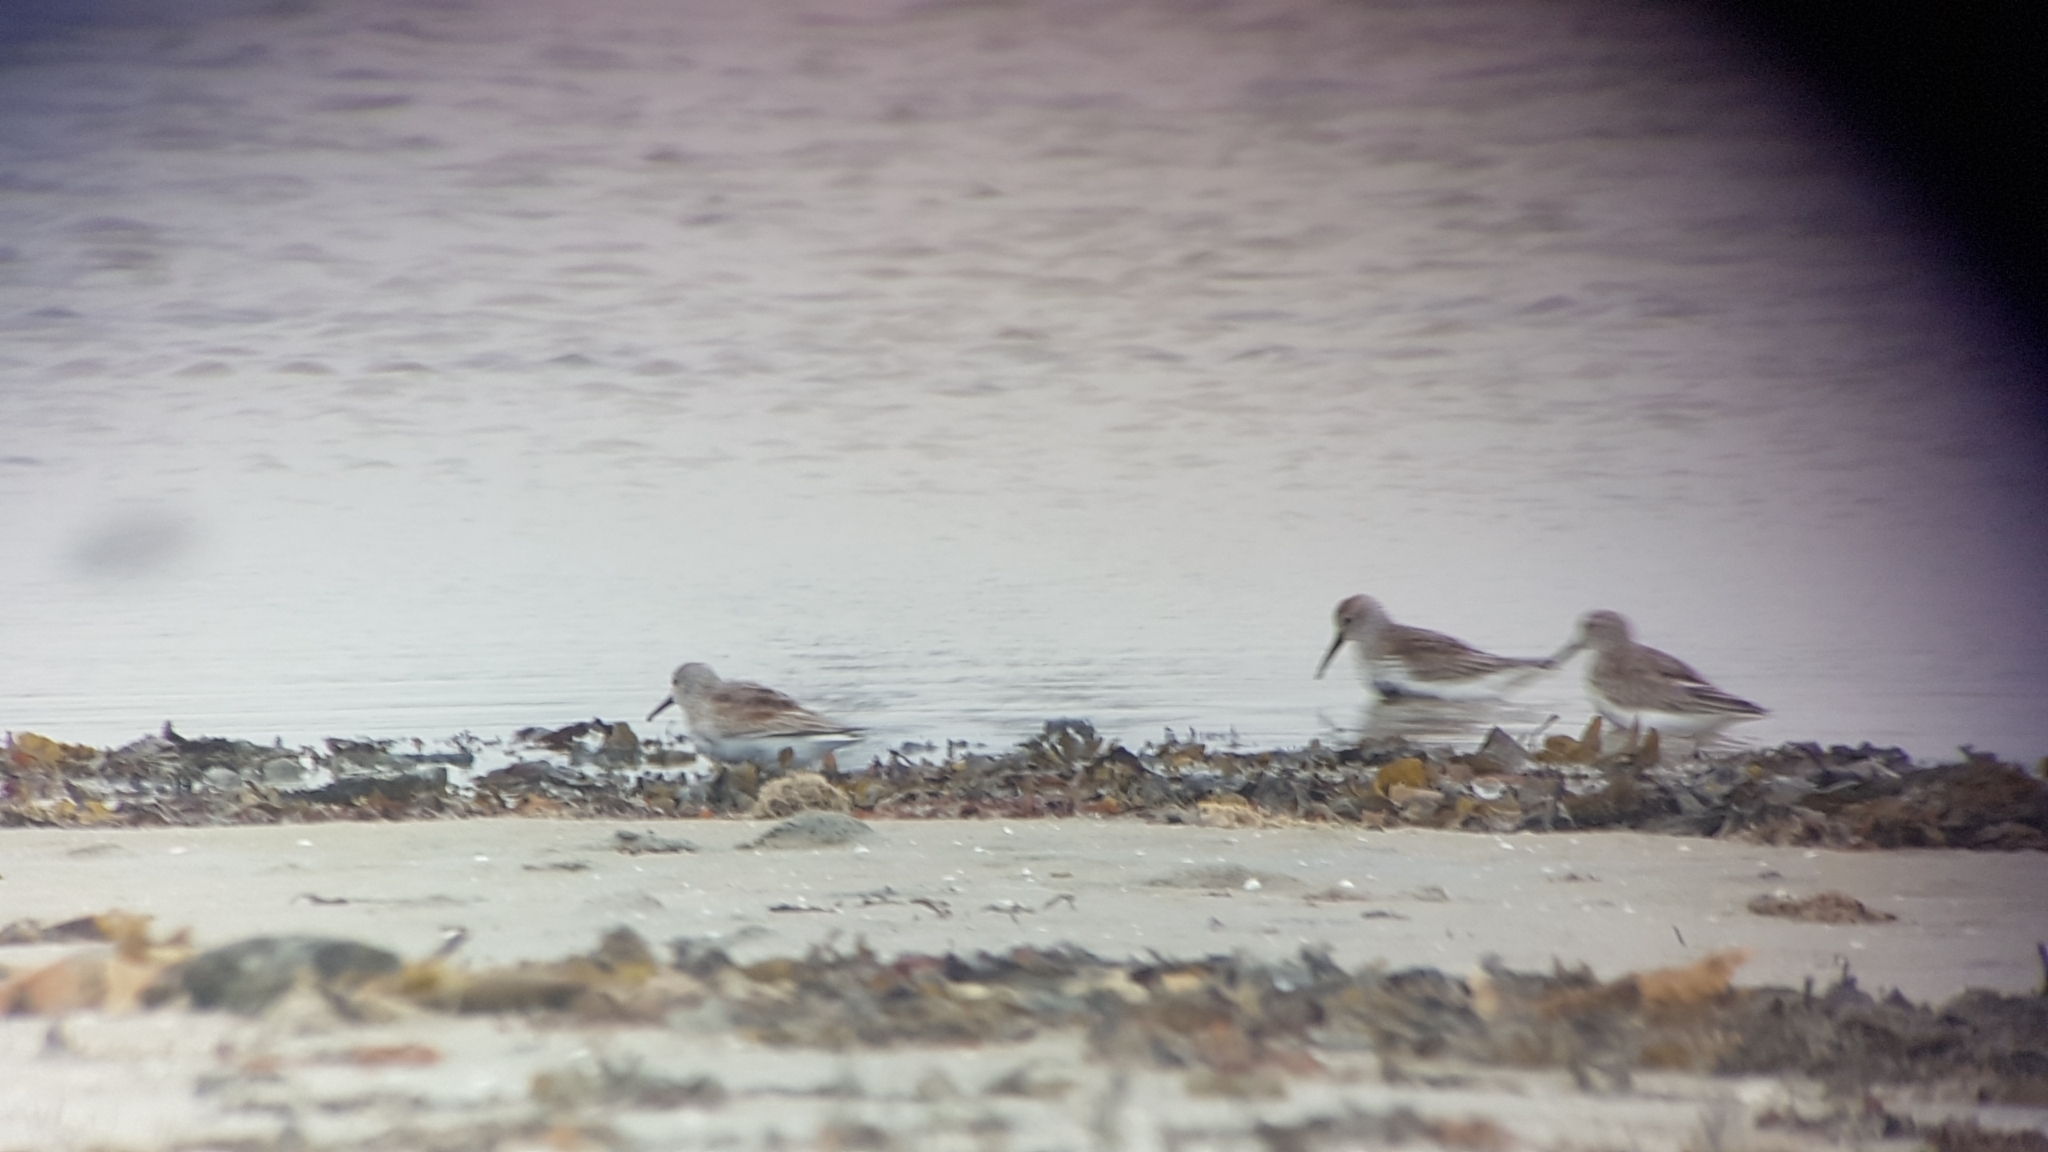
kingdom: Animalia
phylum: Chordata
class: Aves
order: Charadriiformes
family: Scolopacidae
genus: Calidris
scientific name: Calidris alpina
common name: Dunlin
